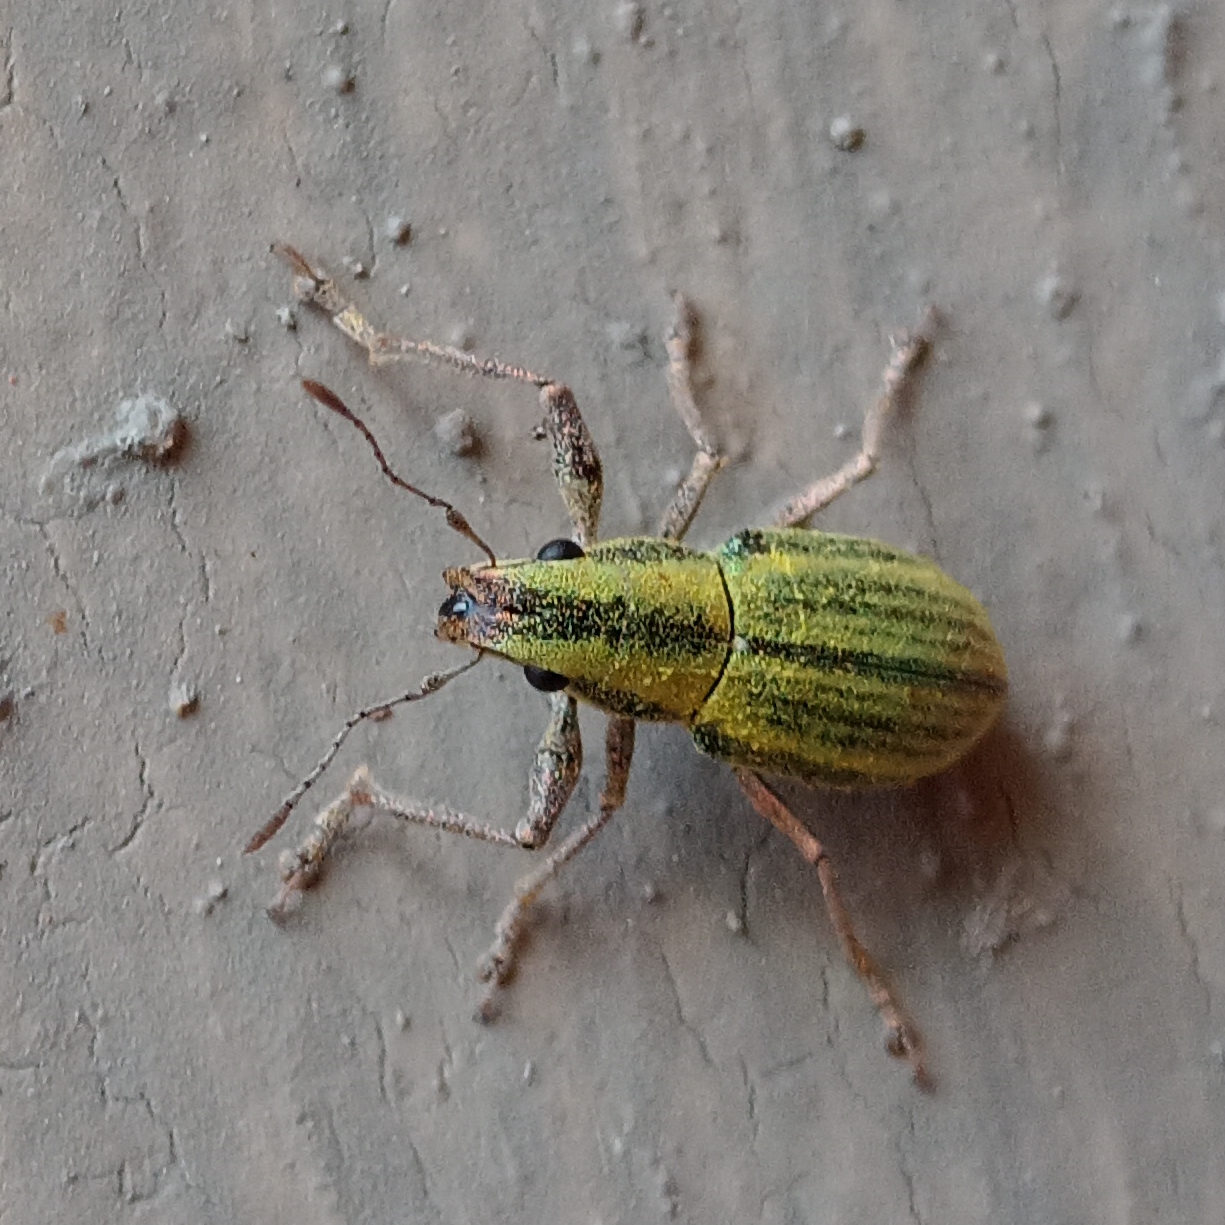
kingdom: Animalia
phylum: Arthropoda
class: Insecta
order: Coleoptera
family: Curculionidae
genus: Naupactus
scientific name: Naupactus virens
